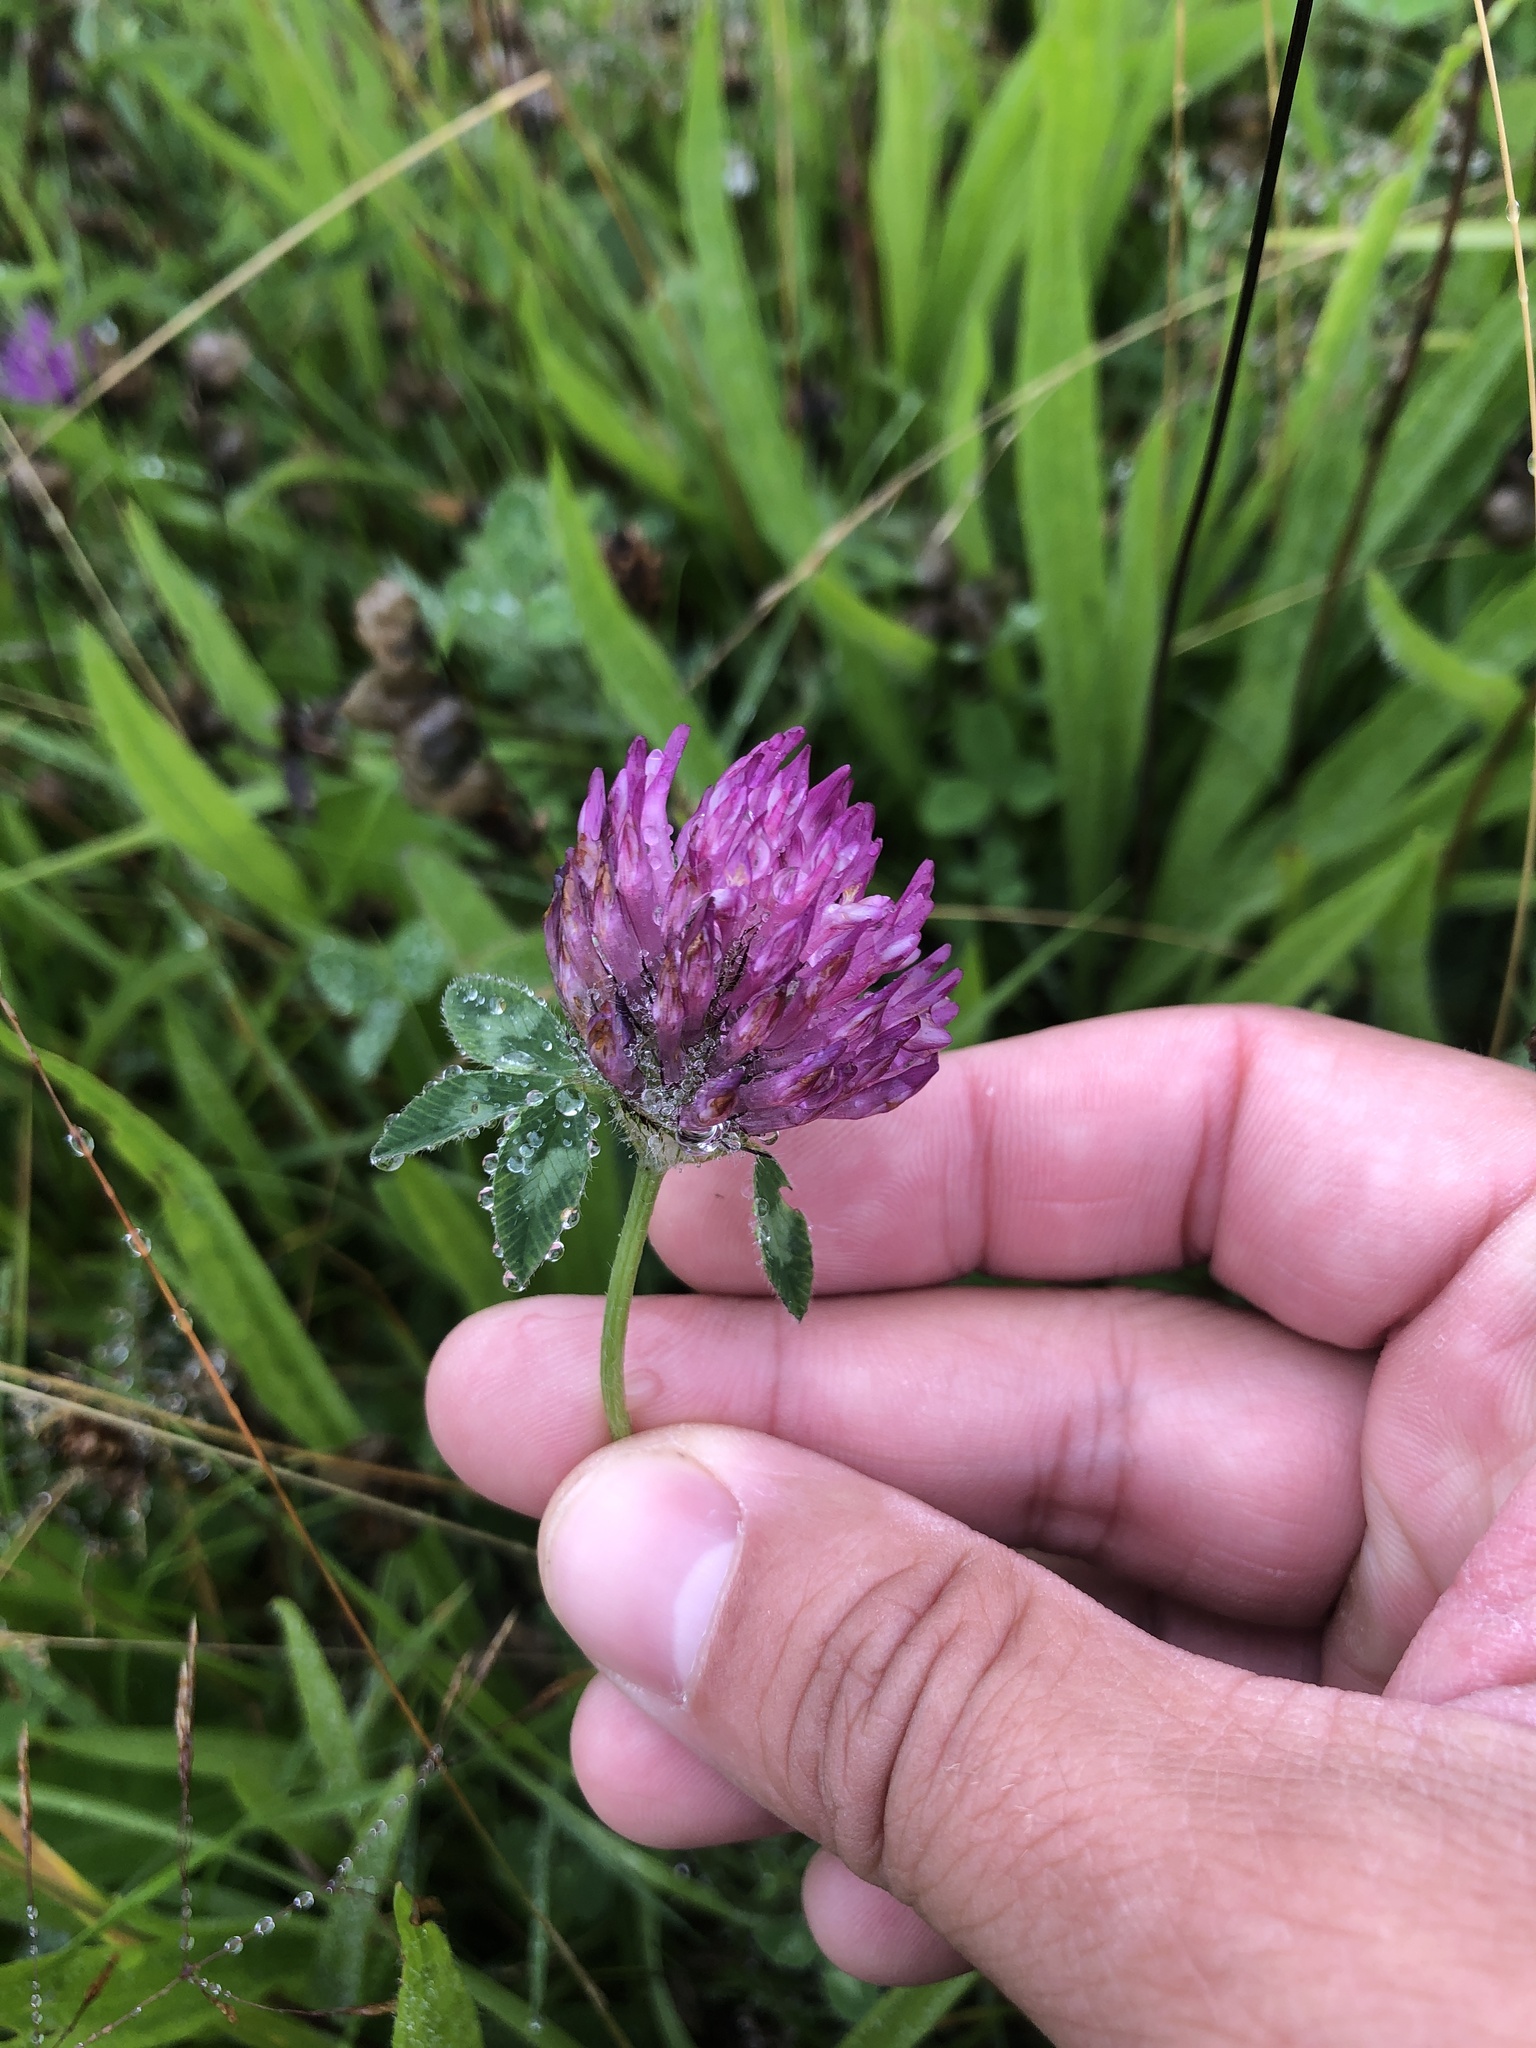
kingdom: Plantae
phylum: Tracheophyta
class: Magnoliopsida
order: Fabales
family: Fabaceae
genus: Trifolium
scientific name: Trifolium pratense
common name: Red clover
